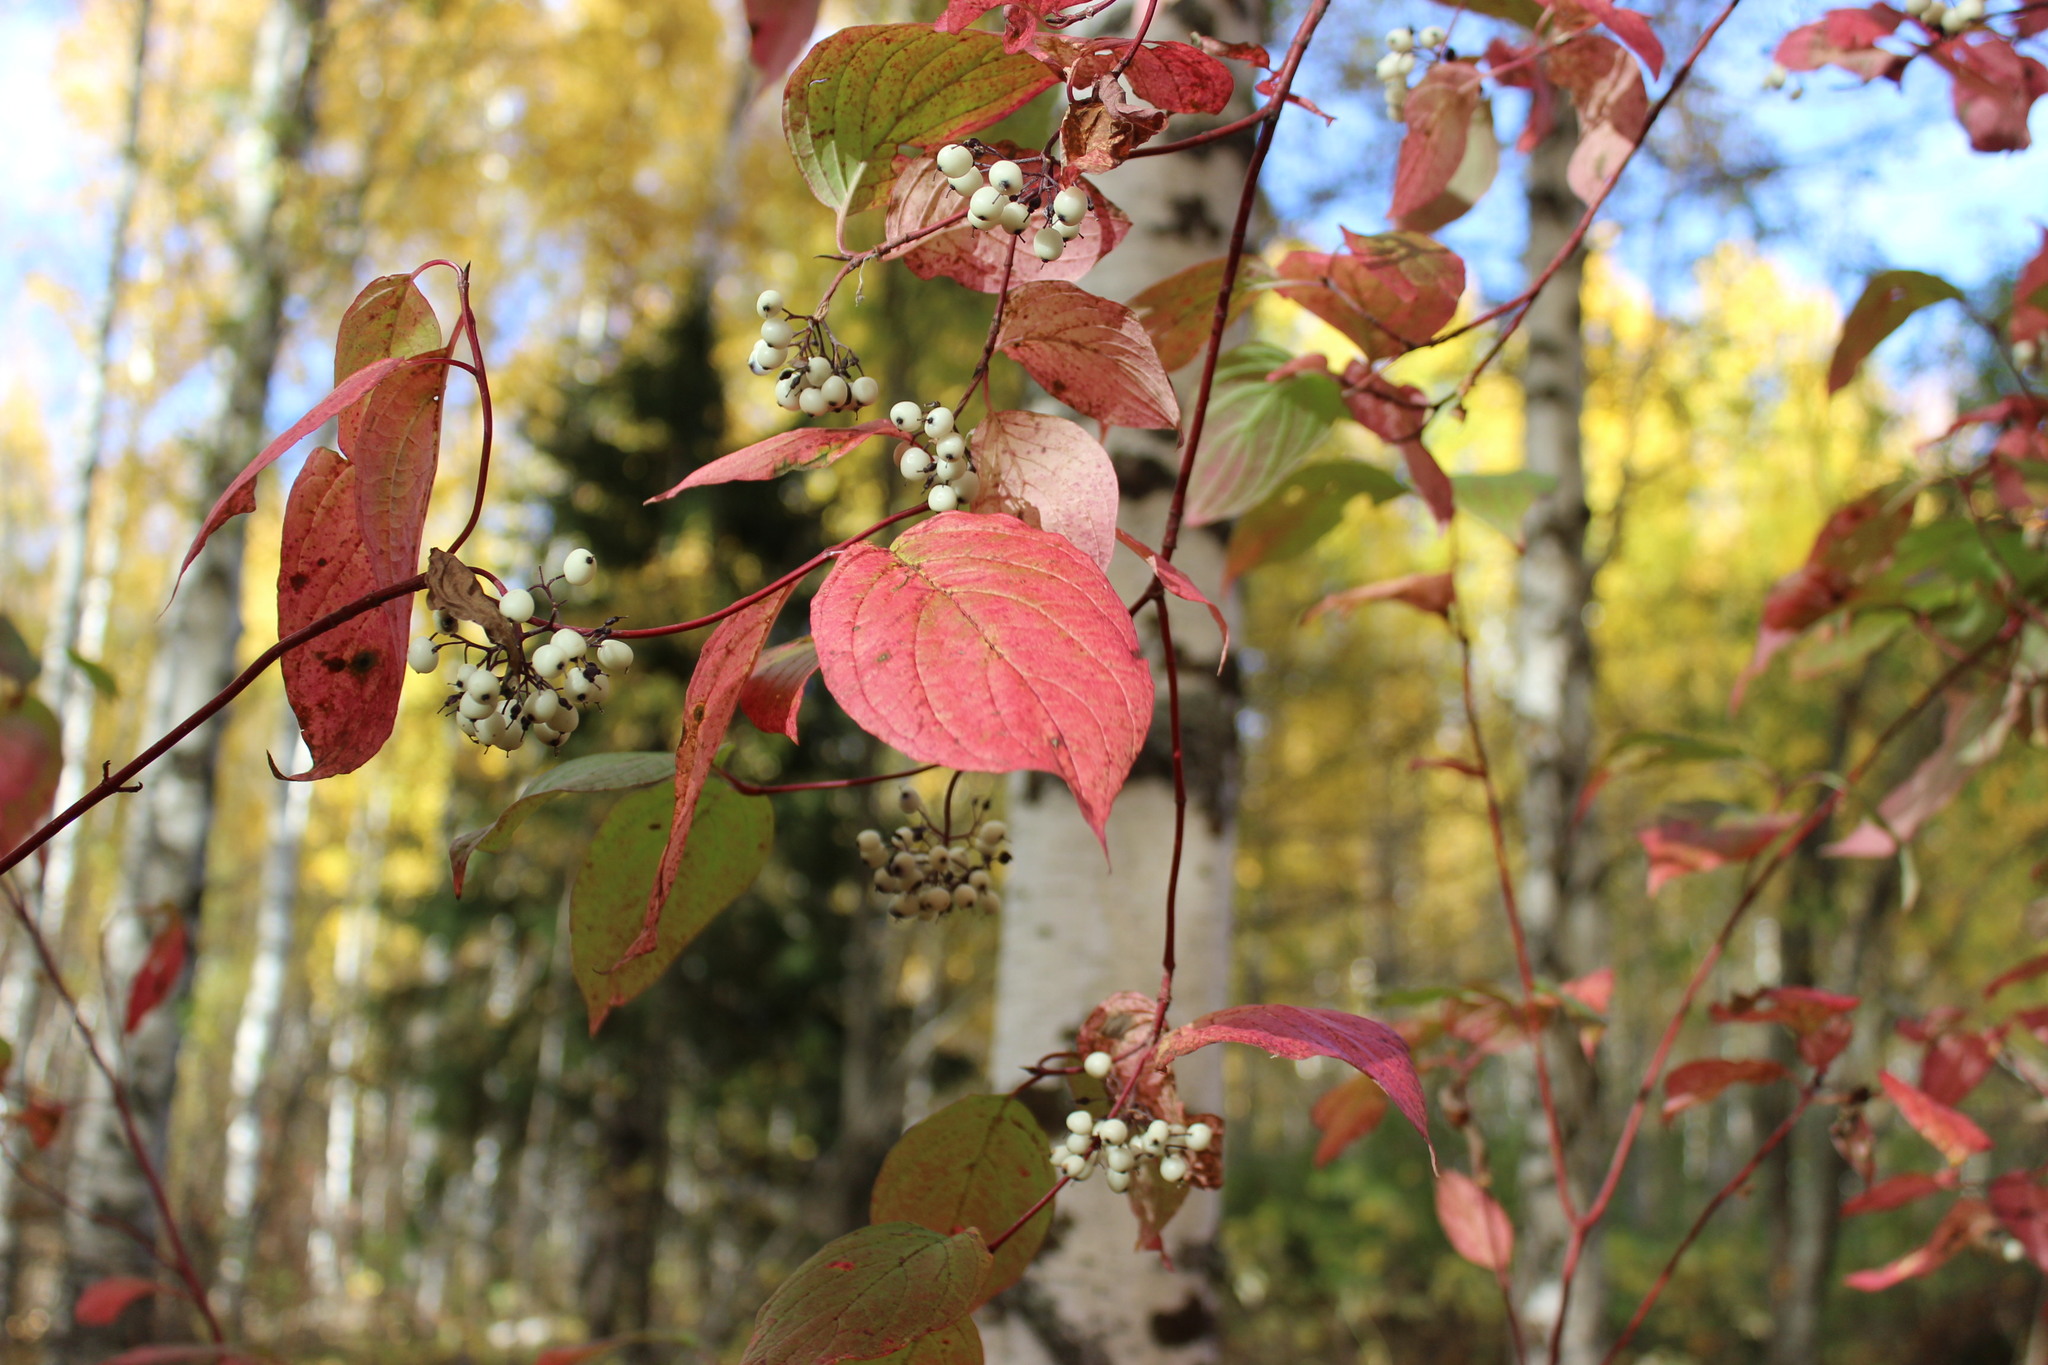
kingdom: Plantae
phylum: Tracheophyta
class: Magnoliopsida
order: Cornales
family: Cornaceae
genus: Cornus
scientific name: Cornus alba
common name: White dogwood
